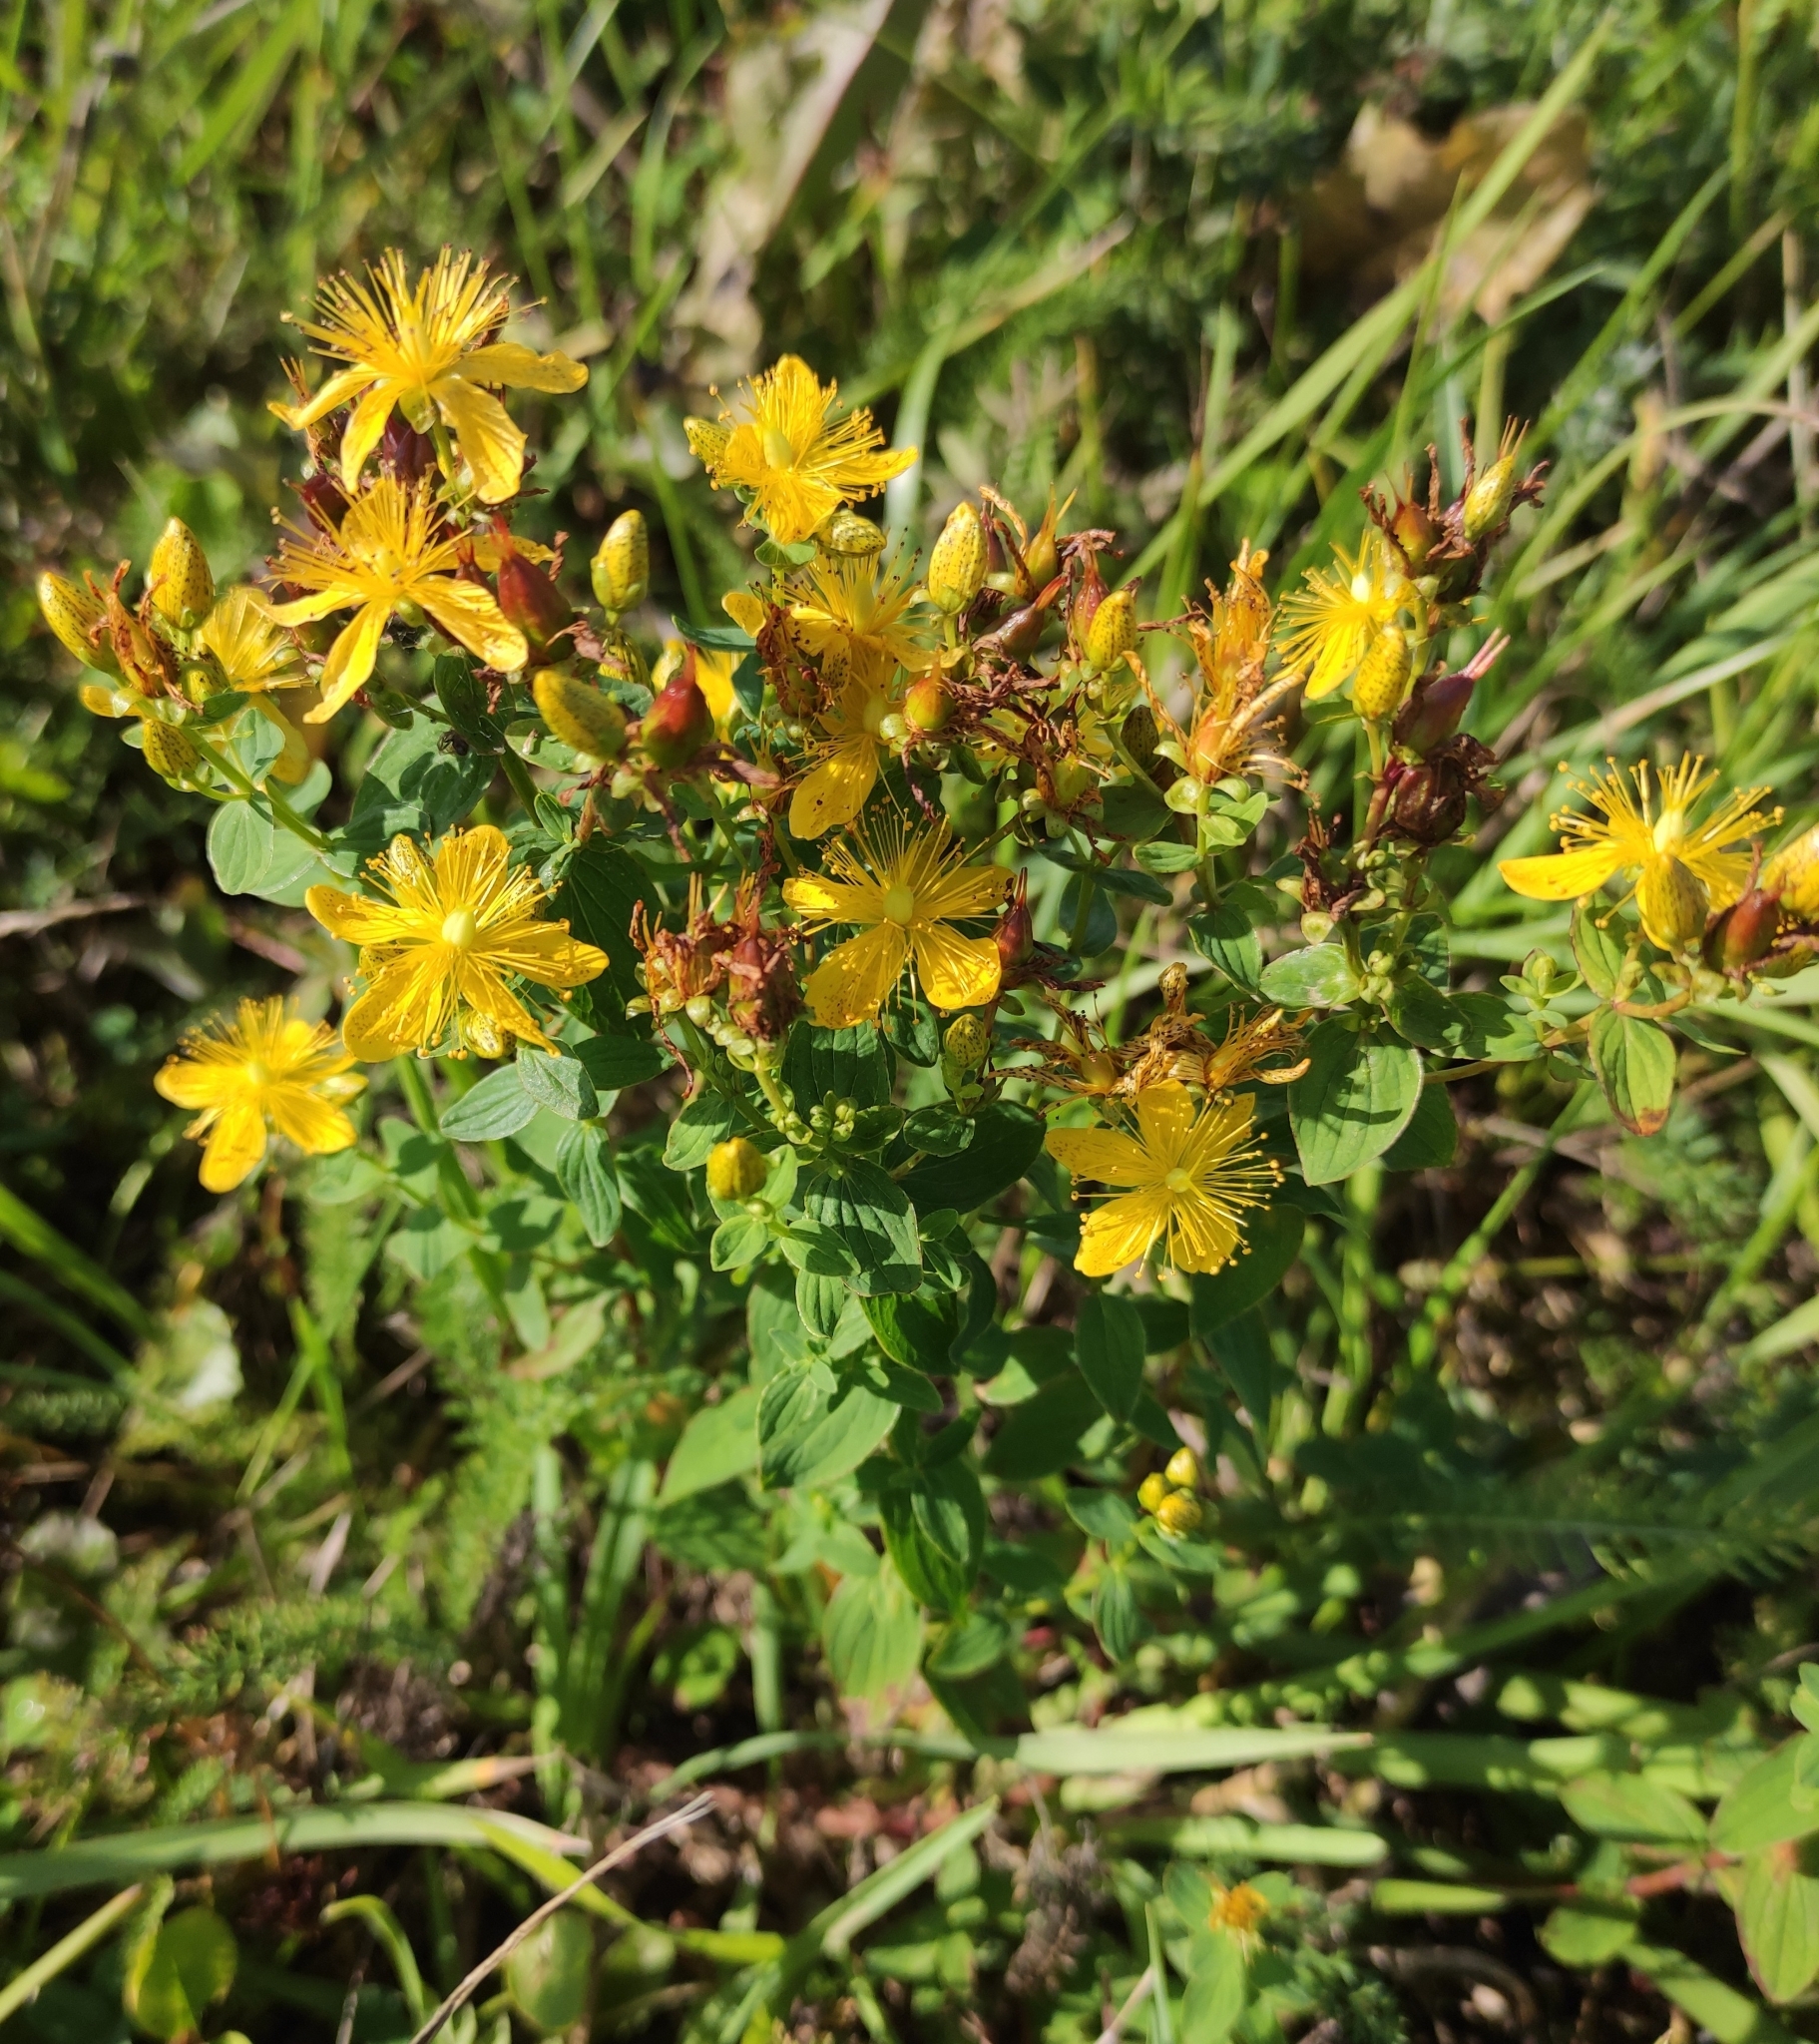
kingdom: Plantae
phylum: Tracheophyta
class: Magnoliopsida
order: Malpighiales
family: Hypericaceae
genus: Hypericum
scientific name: Hypericum maculatum
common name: Imperforate st. john's-wort
